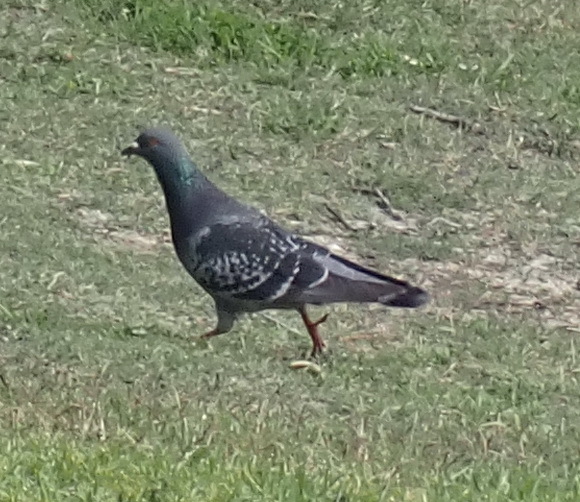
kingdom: Animalia
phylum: Chordata
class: Aves
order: Columbiformes
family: Columbidae
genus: Columba
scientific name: Columba livia
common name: Rock pigeon
